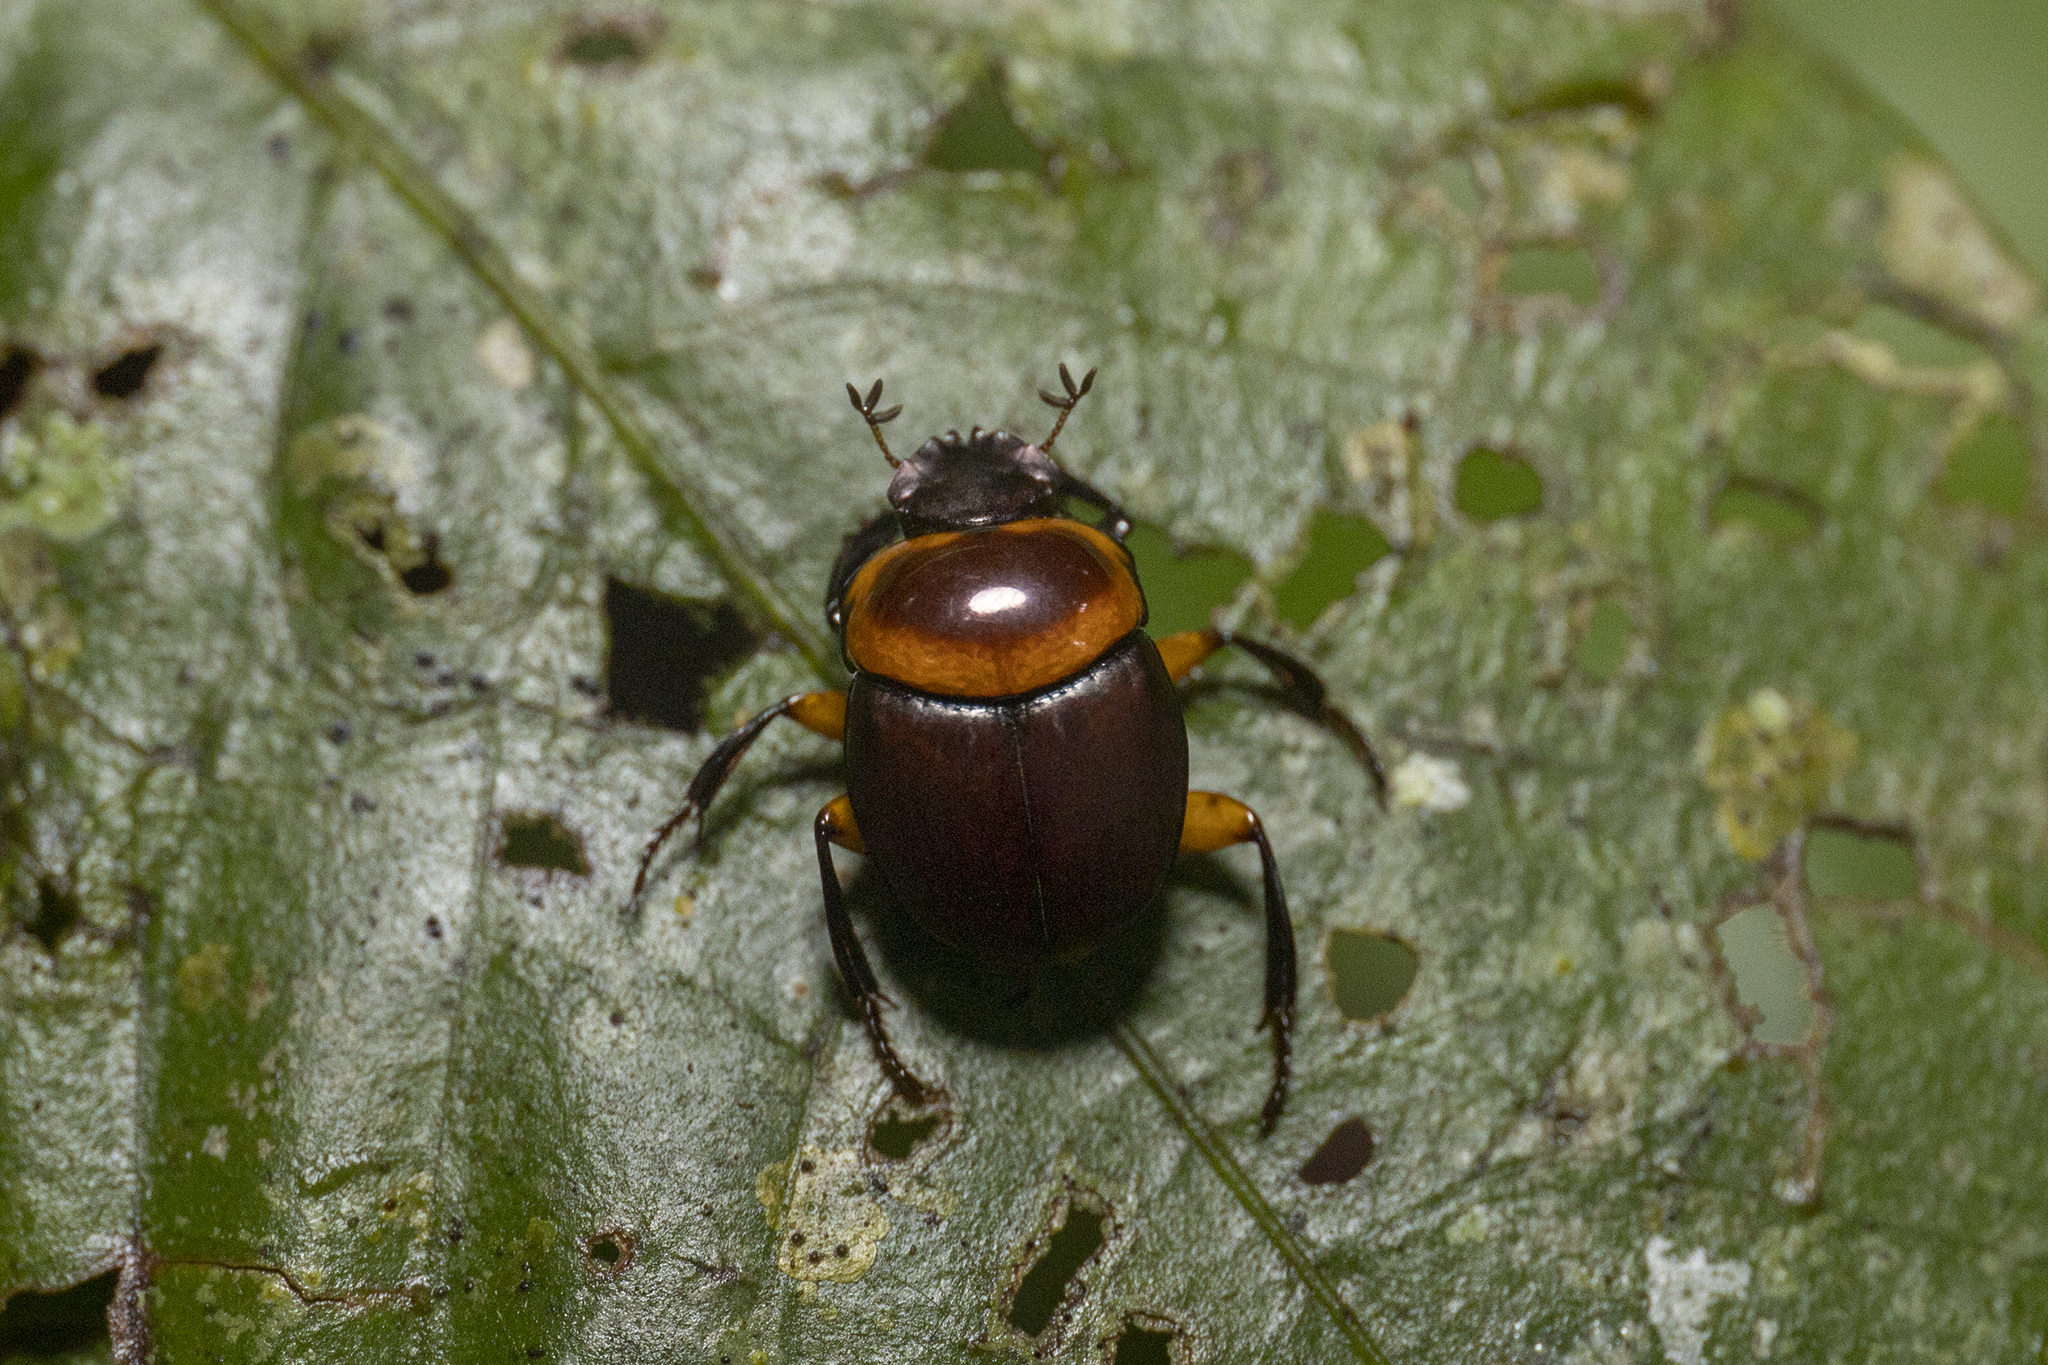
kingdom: Animalia
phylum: Arthropoda
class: Insecta
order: Coleoptera
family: Scarabaeidae
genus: Canthon
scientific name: Canthon luteicollis
